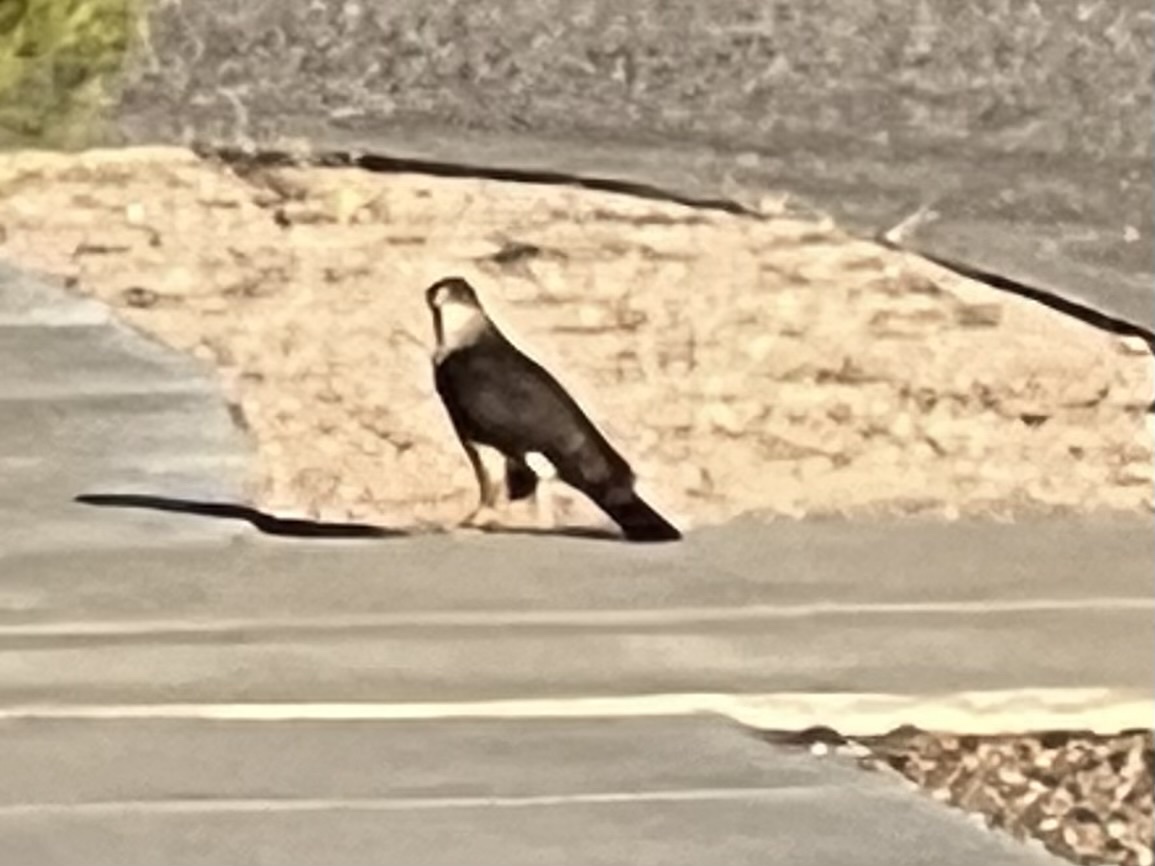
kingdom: Animalia
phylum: Chordata
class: Aves
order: Accipitriformes
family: Accipitridae
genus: Accipiter
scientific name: Accipiter cooperii
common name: Cooper's hawk
